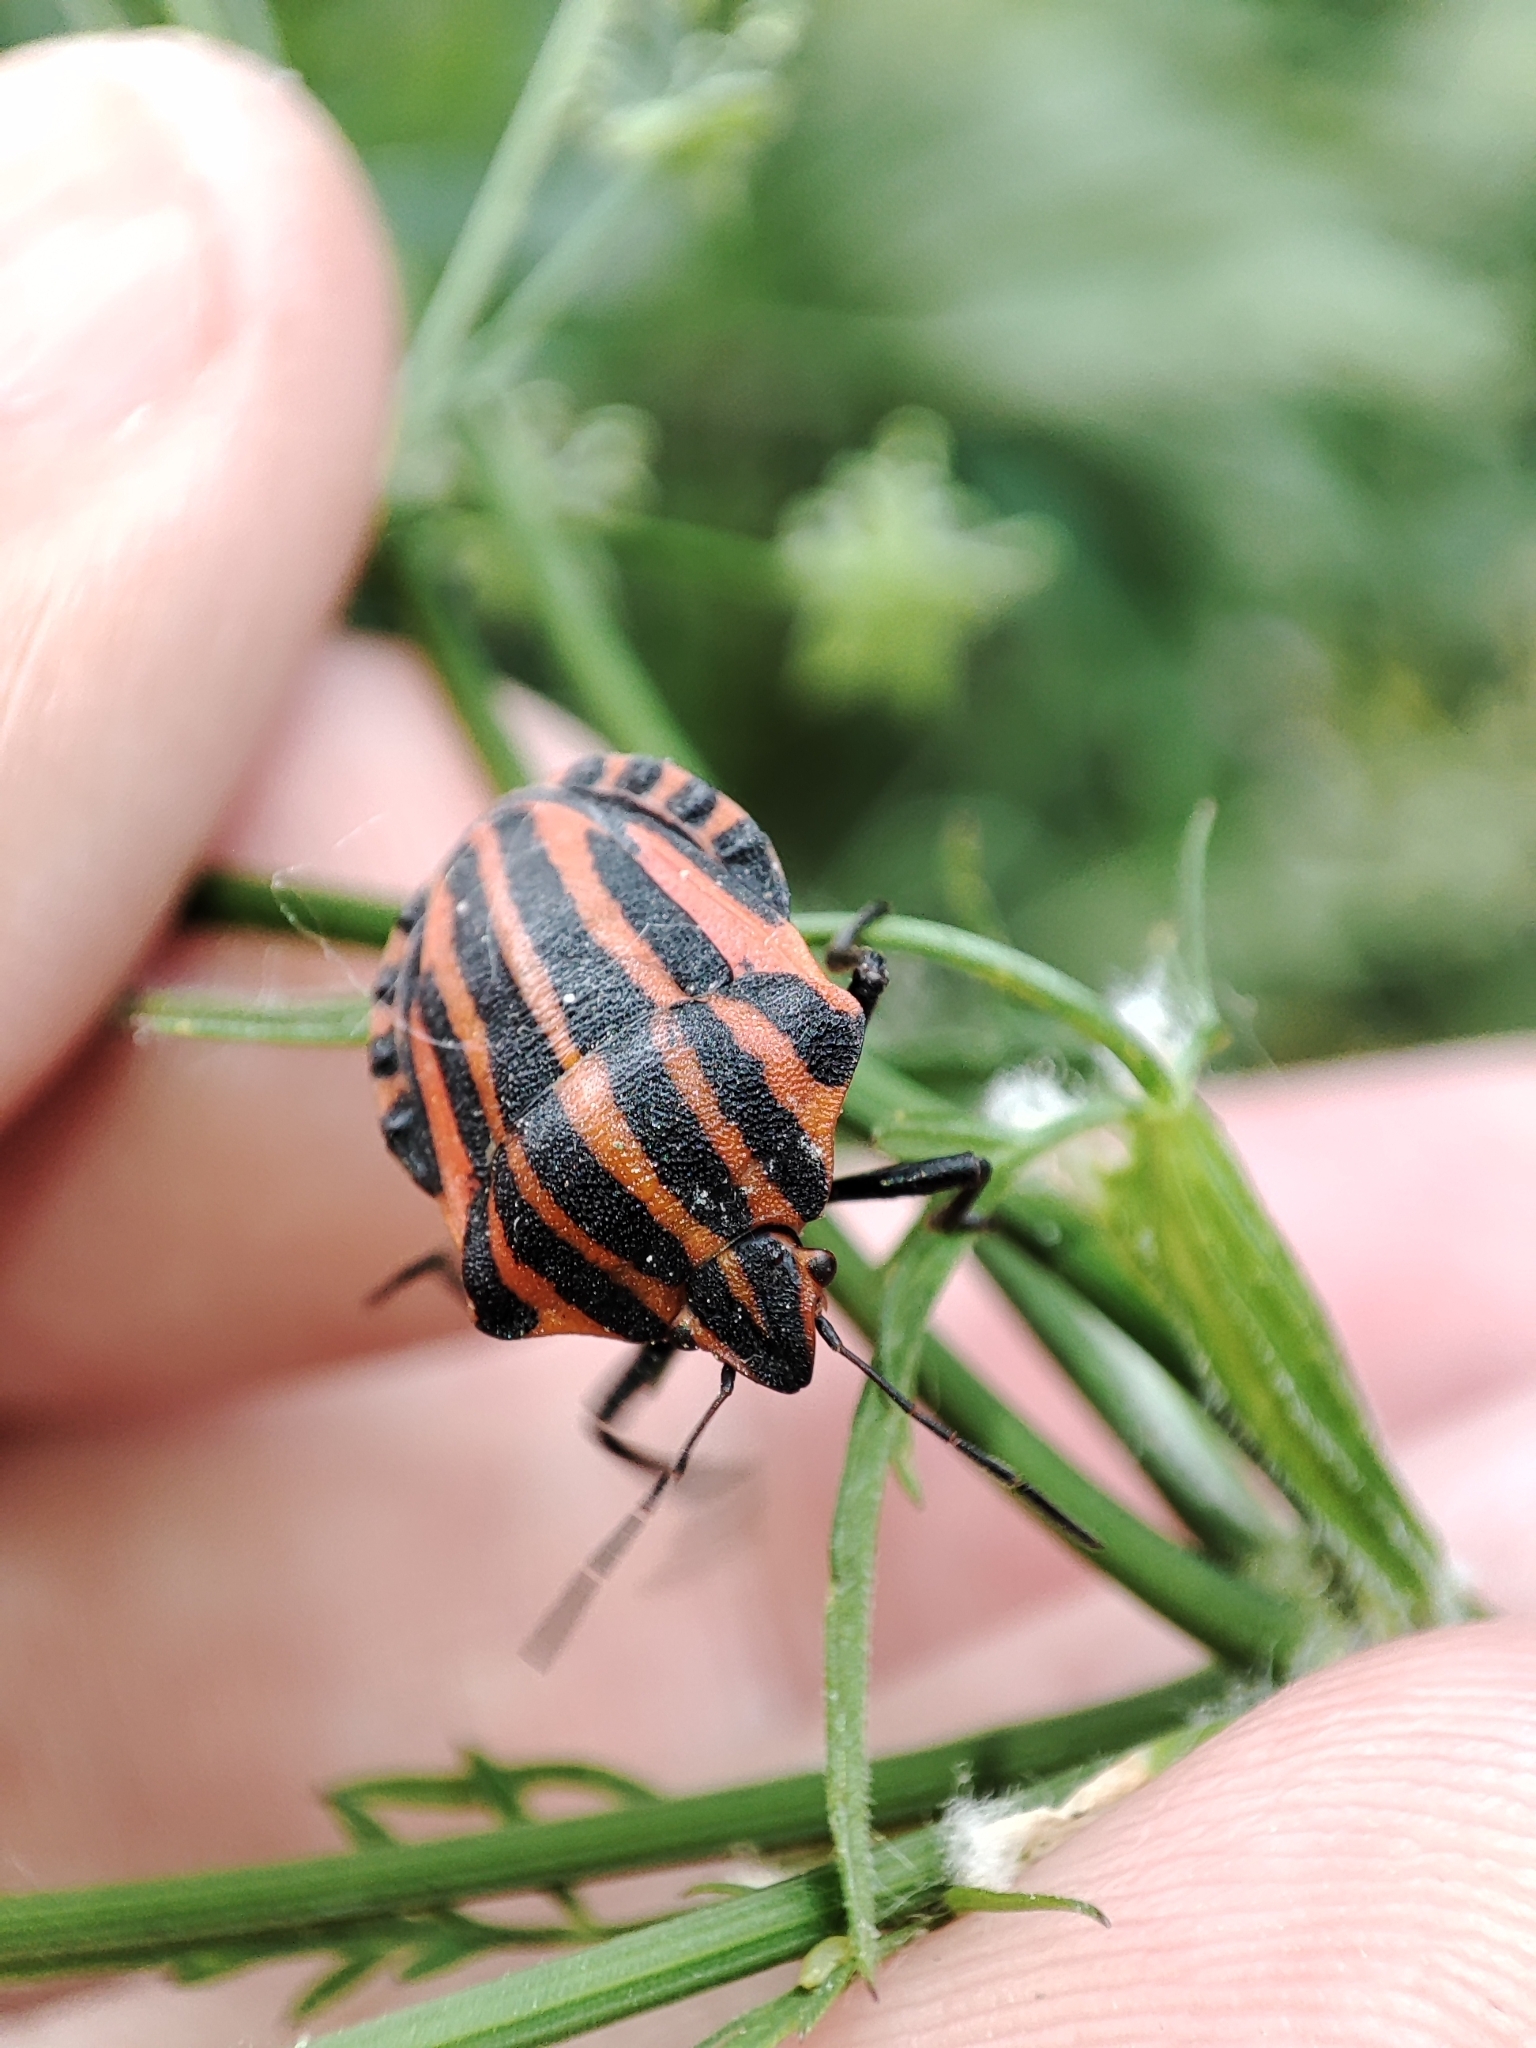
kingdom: Animalia
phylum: Arthropoda
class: Insecta
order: Hemiptera
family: Pentatomidae
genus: Graphosoma
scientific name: Graphosoma italicum
